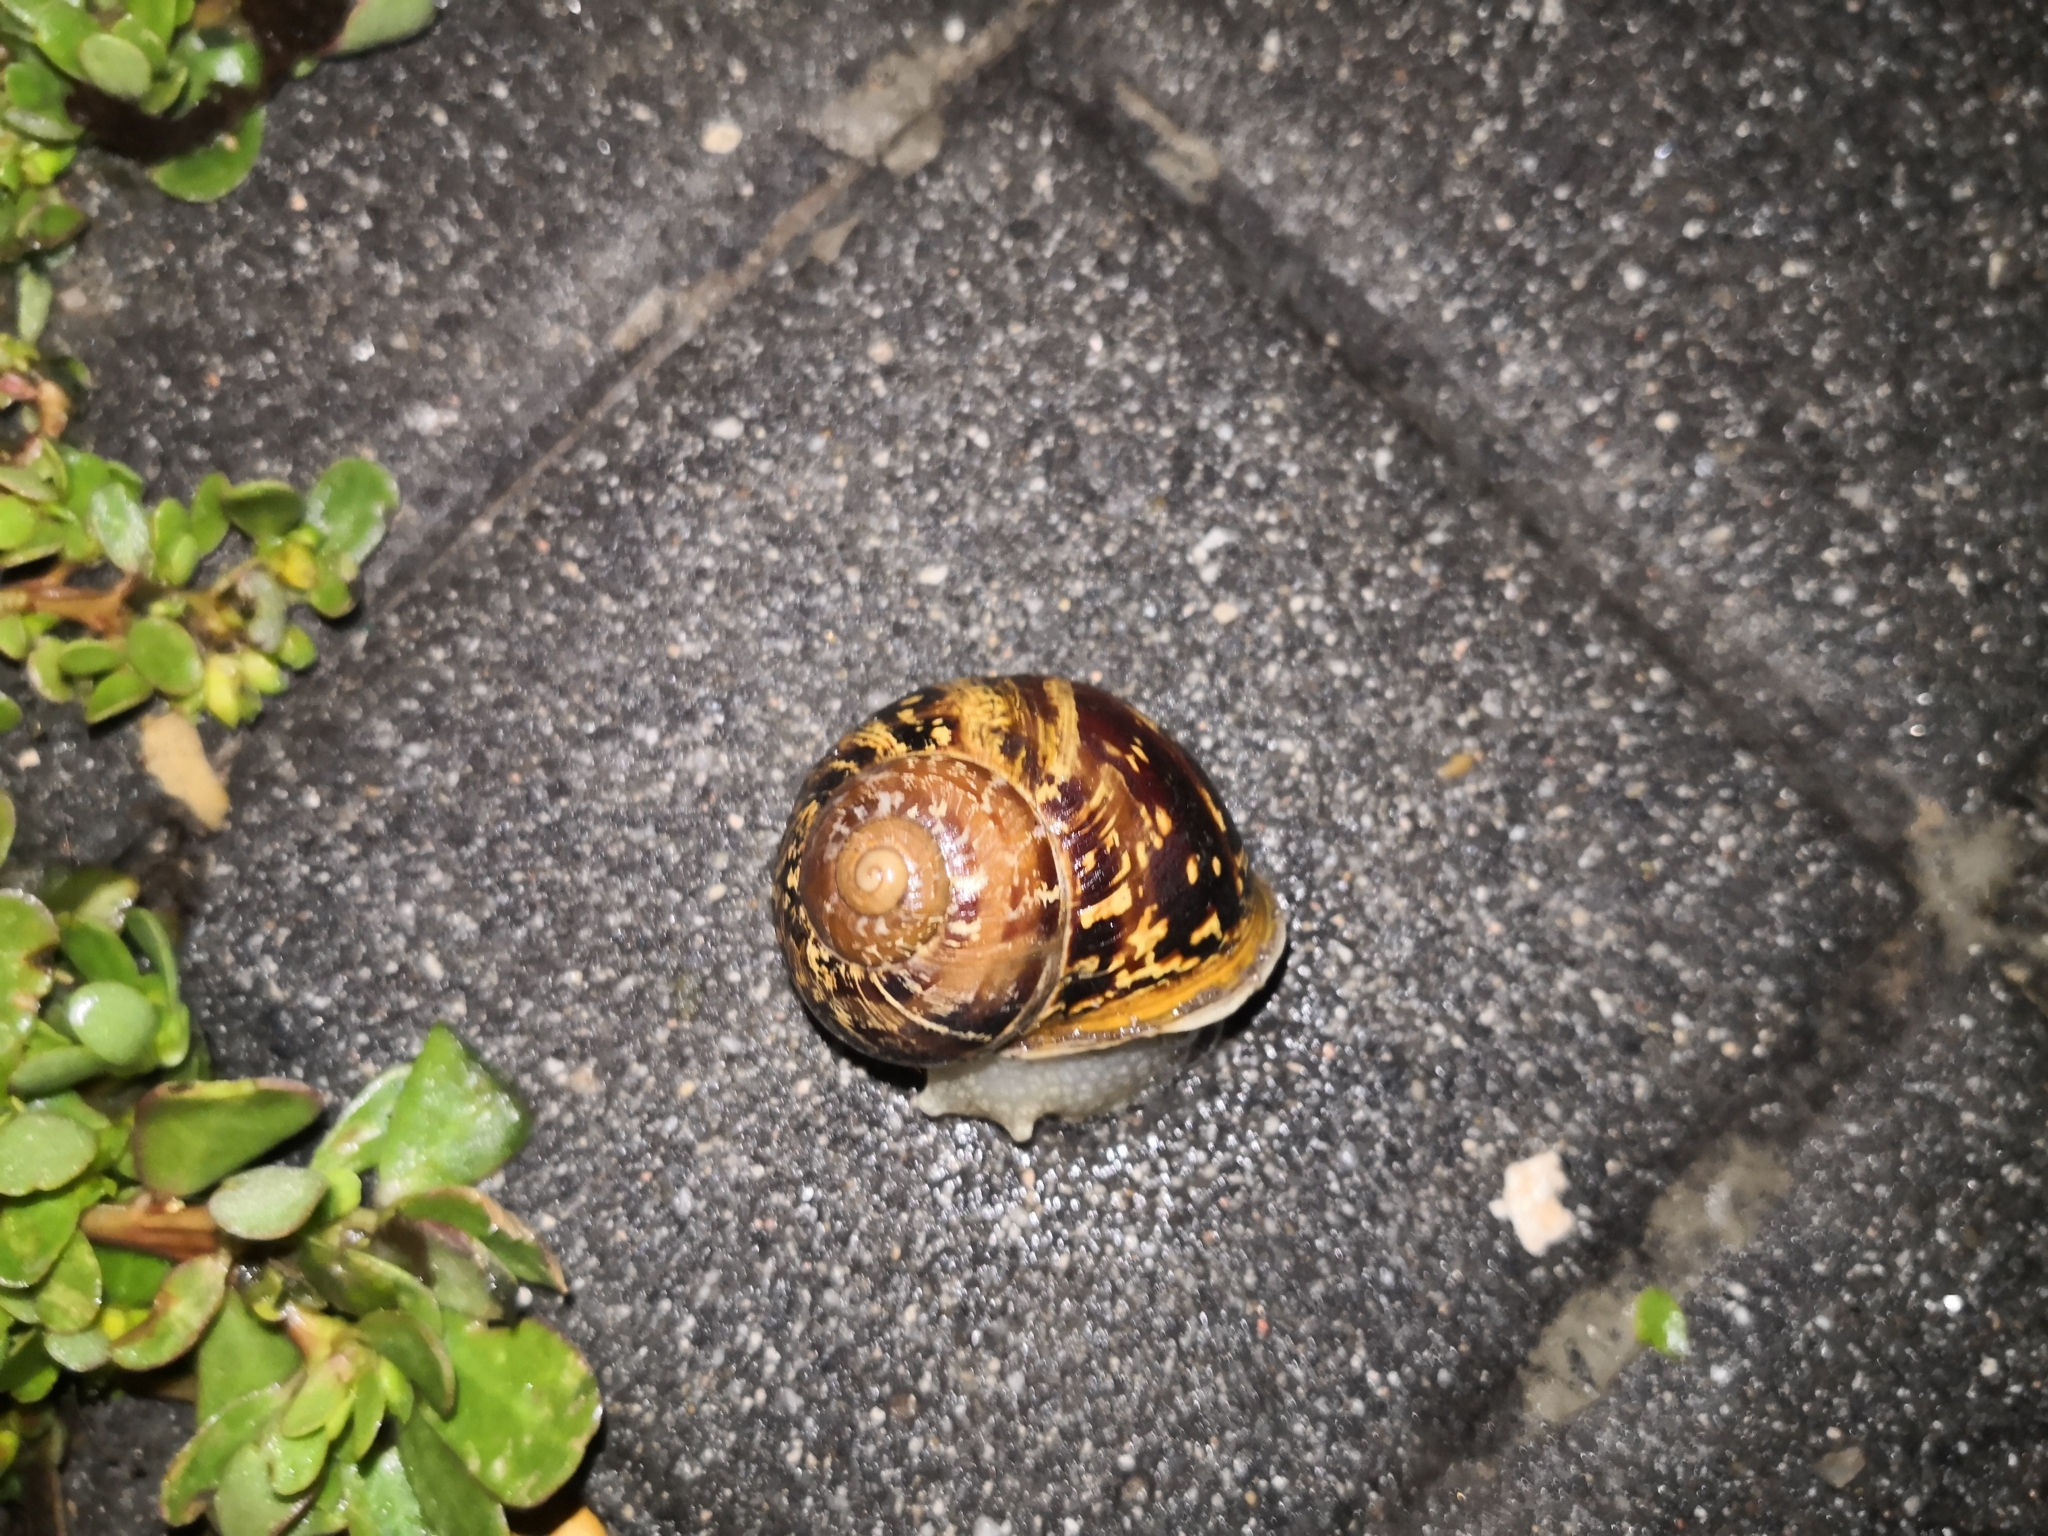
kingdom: Animalia
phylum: Mollusca
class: Gastropoda
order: Stylommatophora
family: Helicidae
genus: Cornu
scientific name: Cornu aspersum
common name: Brown garden snail
